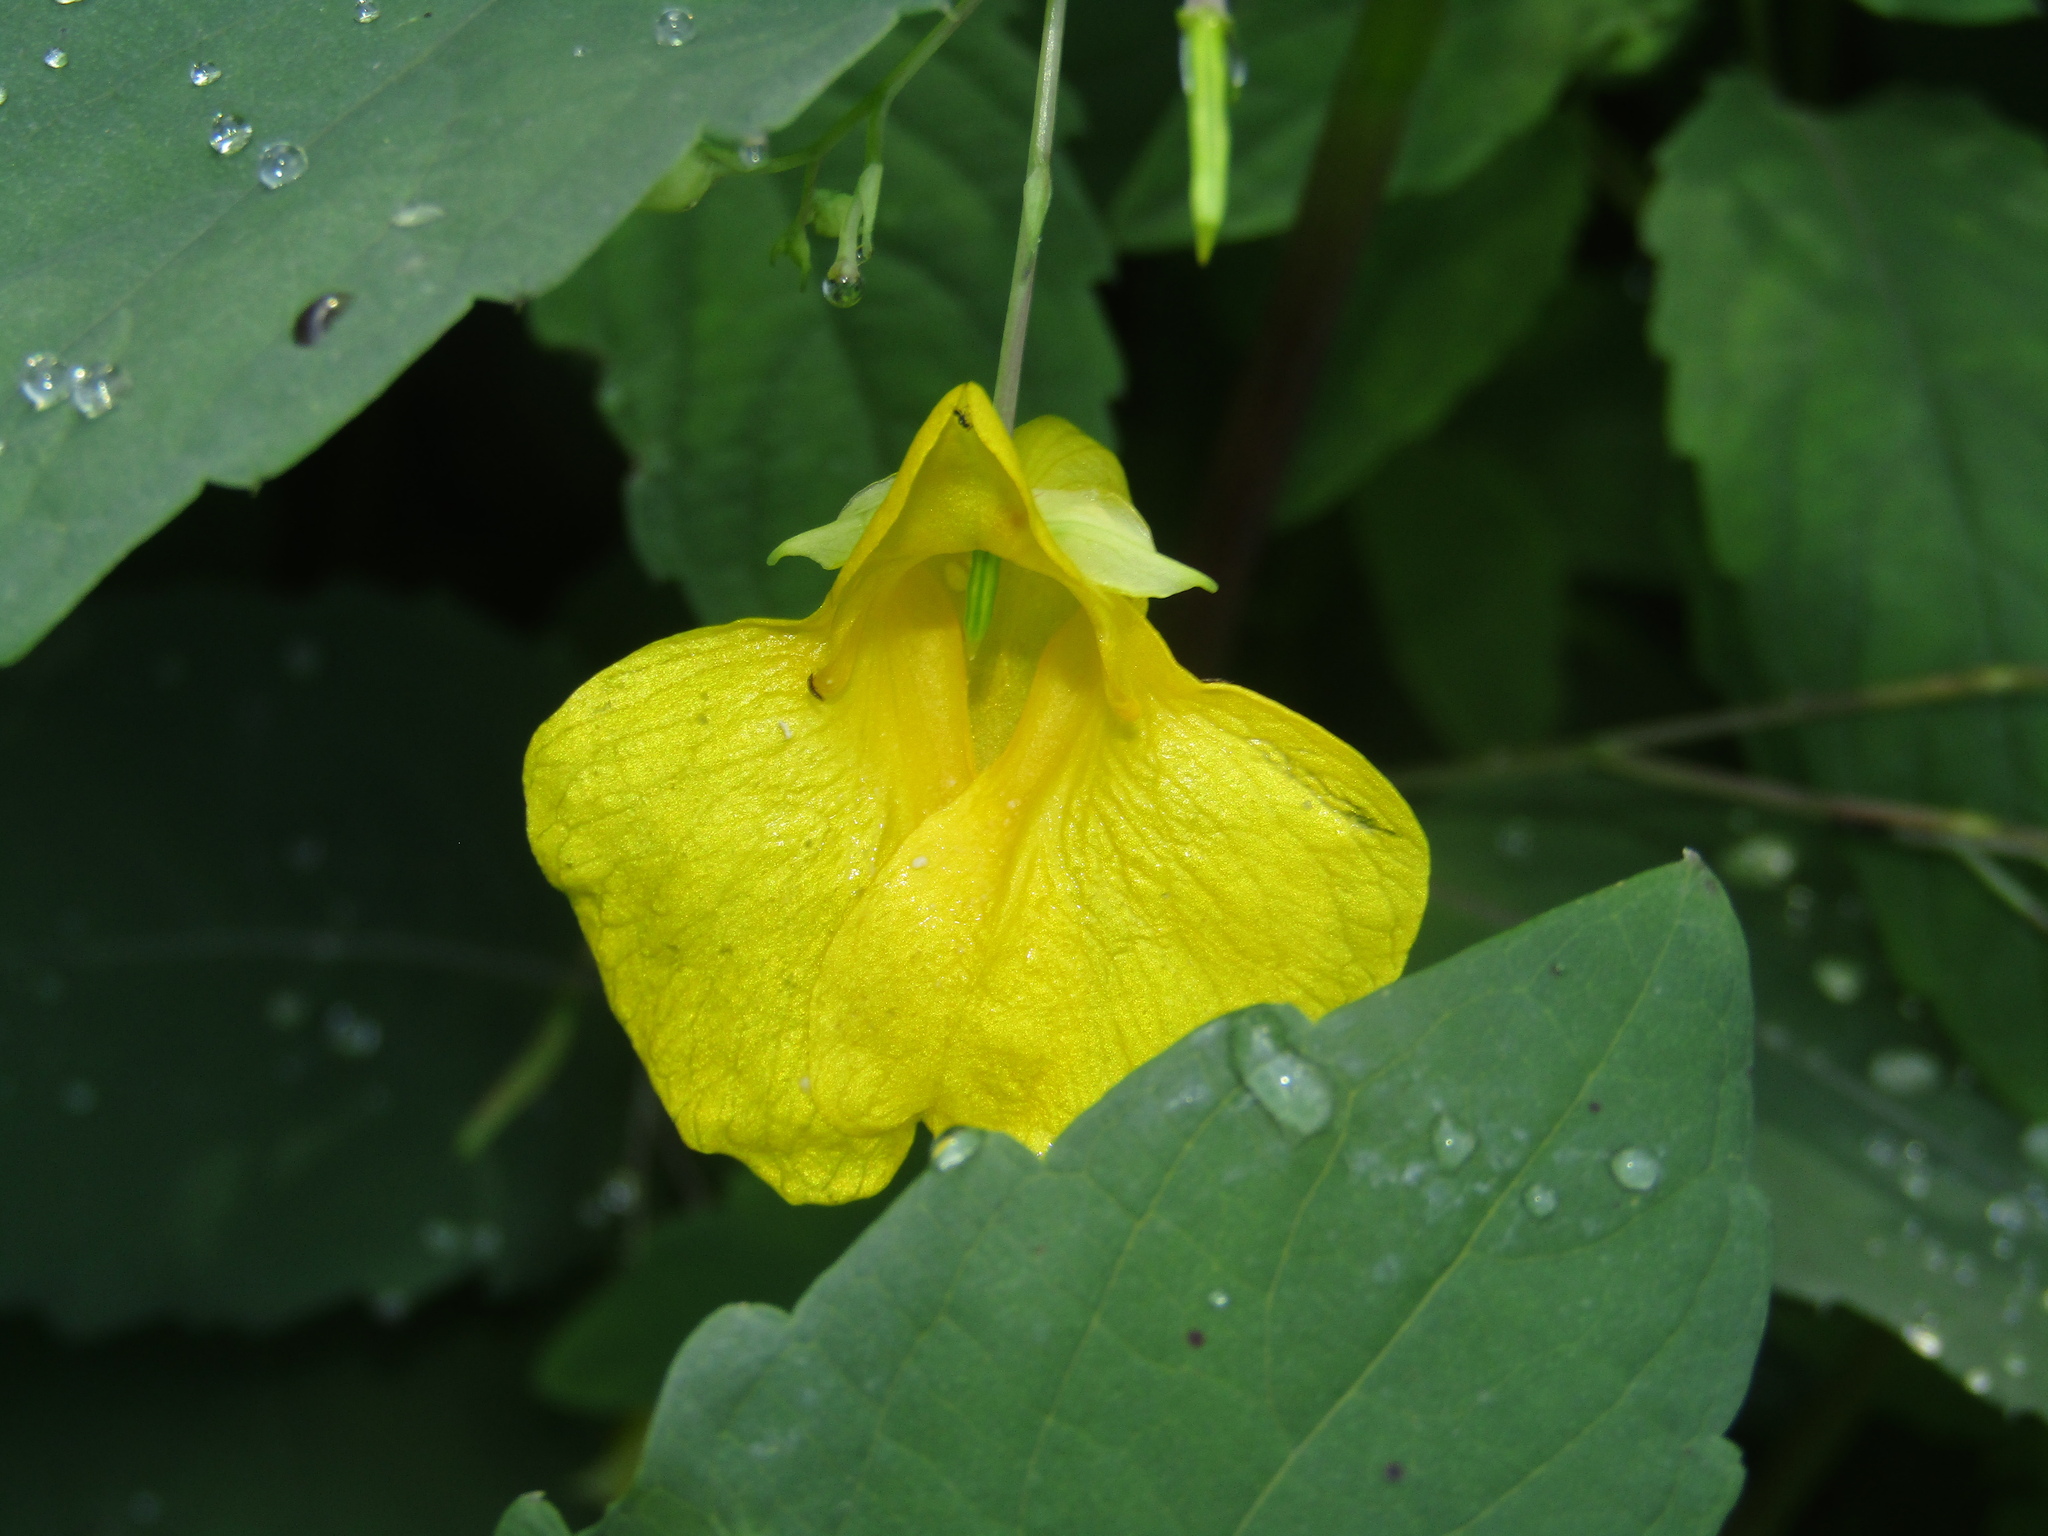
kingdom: Plantae
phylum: Tracheophyta
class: Magnoliopsida
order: Ericales
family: Balsaminaceae
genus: Impatiens
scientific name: Impatiens noli-tangere
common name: Touch-me-not balsam
